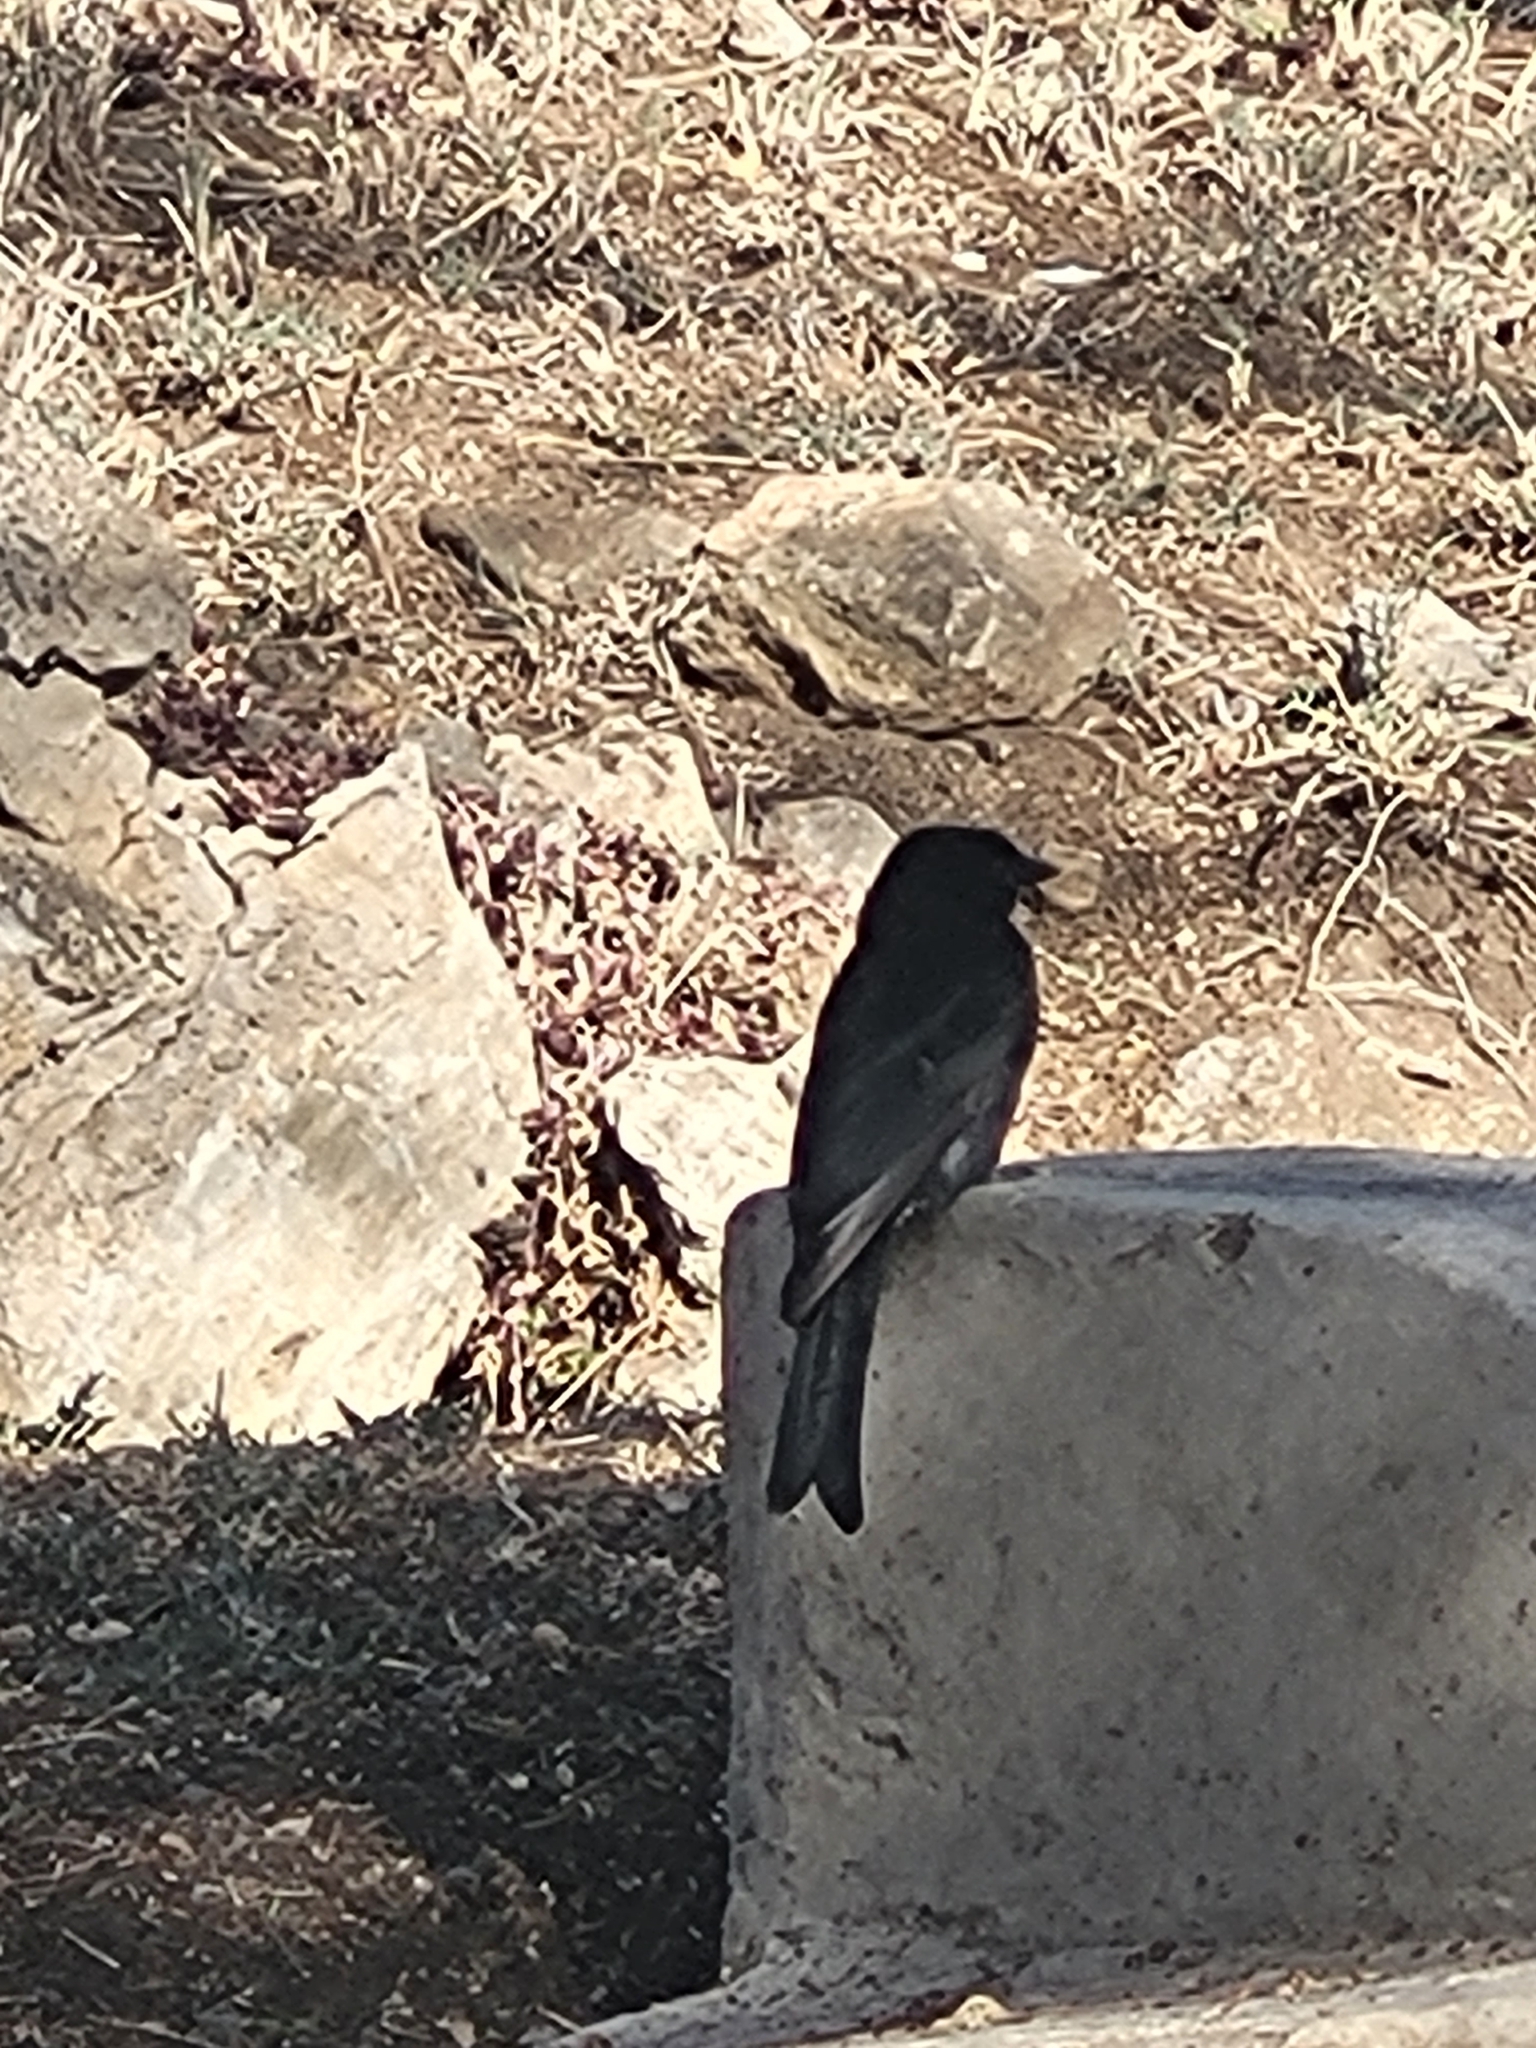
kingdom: Animalia
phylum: Chordata
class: Aves
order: Passeriformes
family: Dicruridae
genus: Dicrurus
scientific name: Dicrurus adsimilis
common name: Fork-tailed drongo
